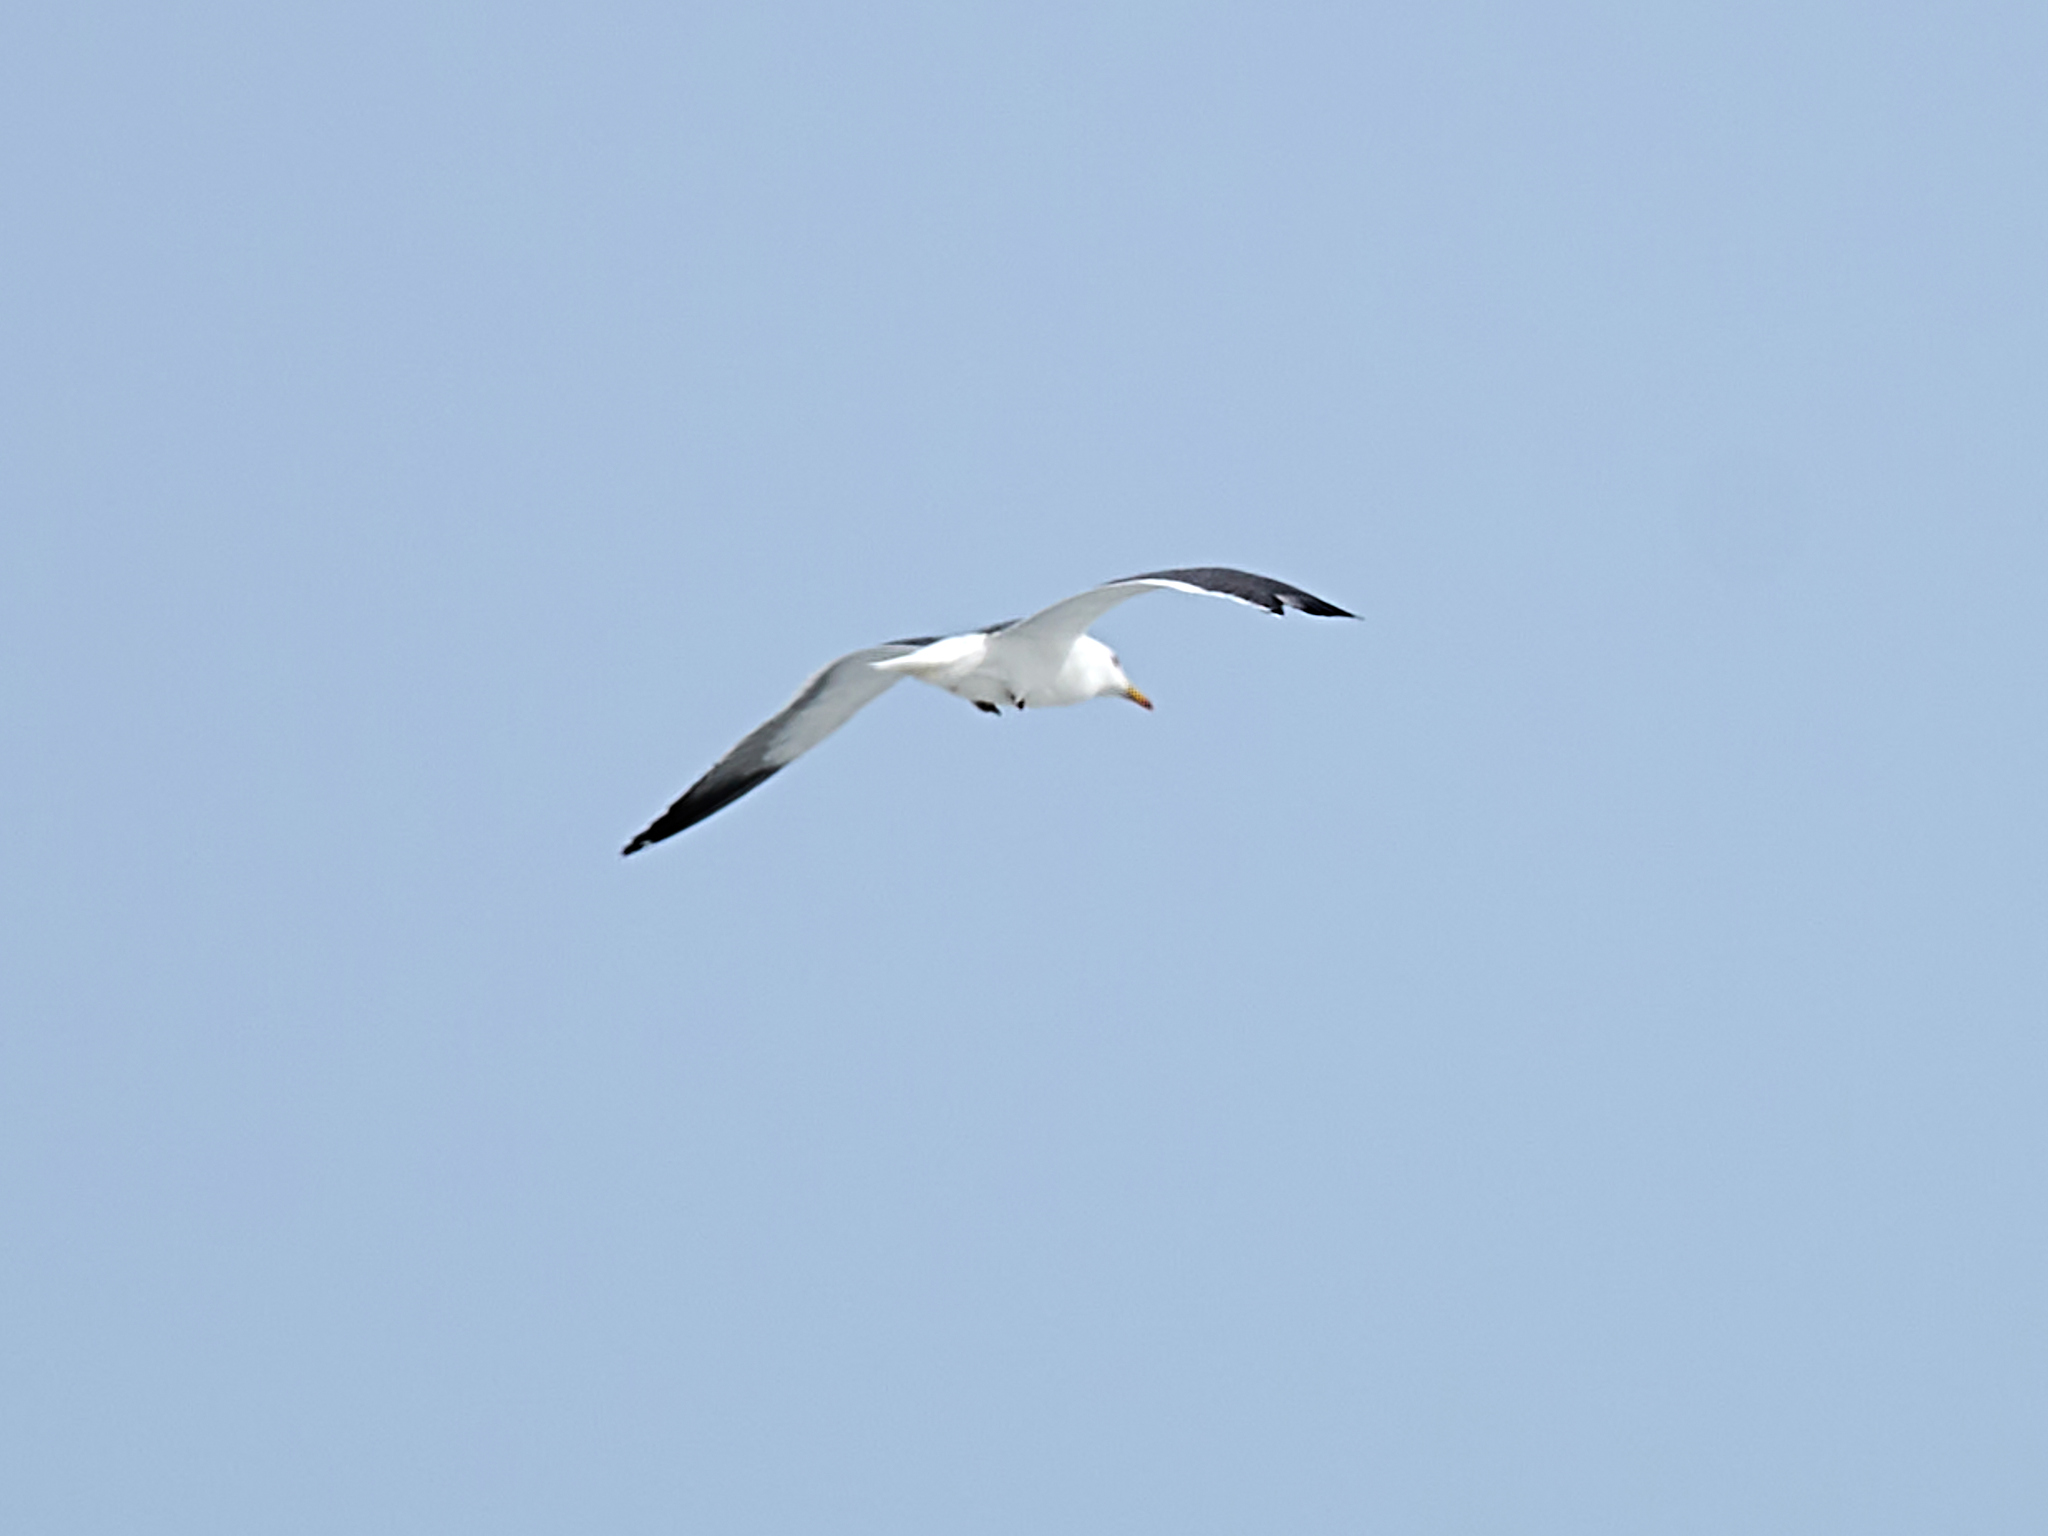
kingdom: Animalia
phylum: Chordata
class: Aves
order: Charadriiformes
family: Laridae
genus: Larus
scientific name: Larus fuscus
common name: Lesser black-backed gull
